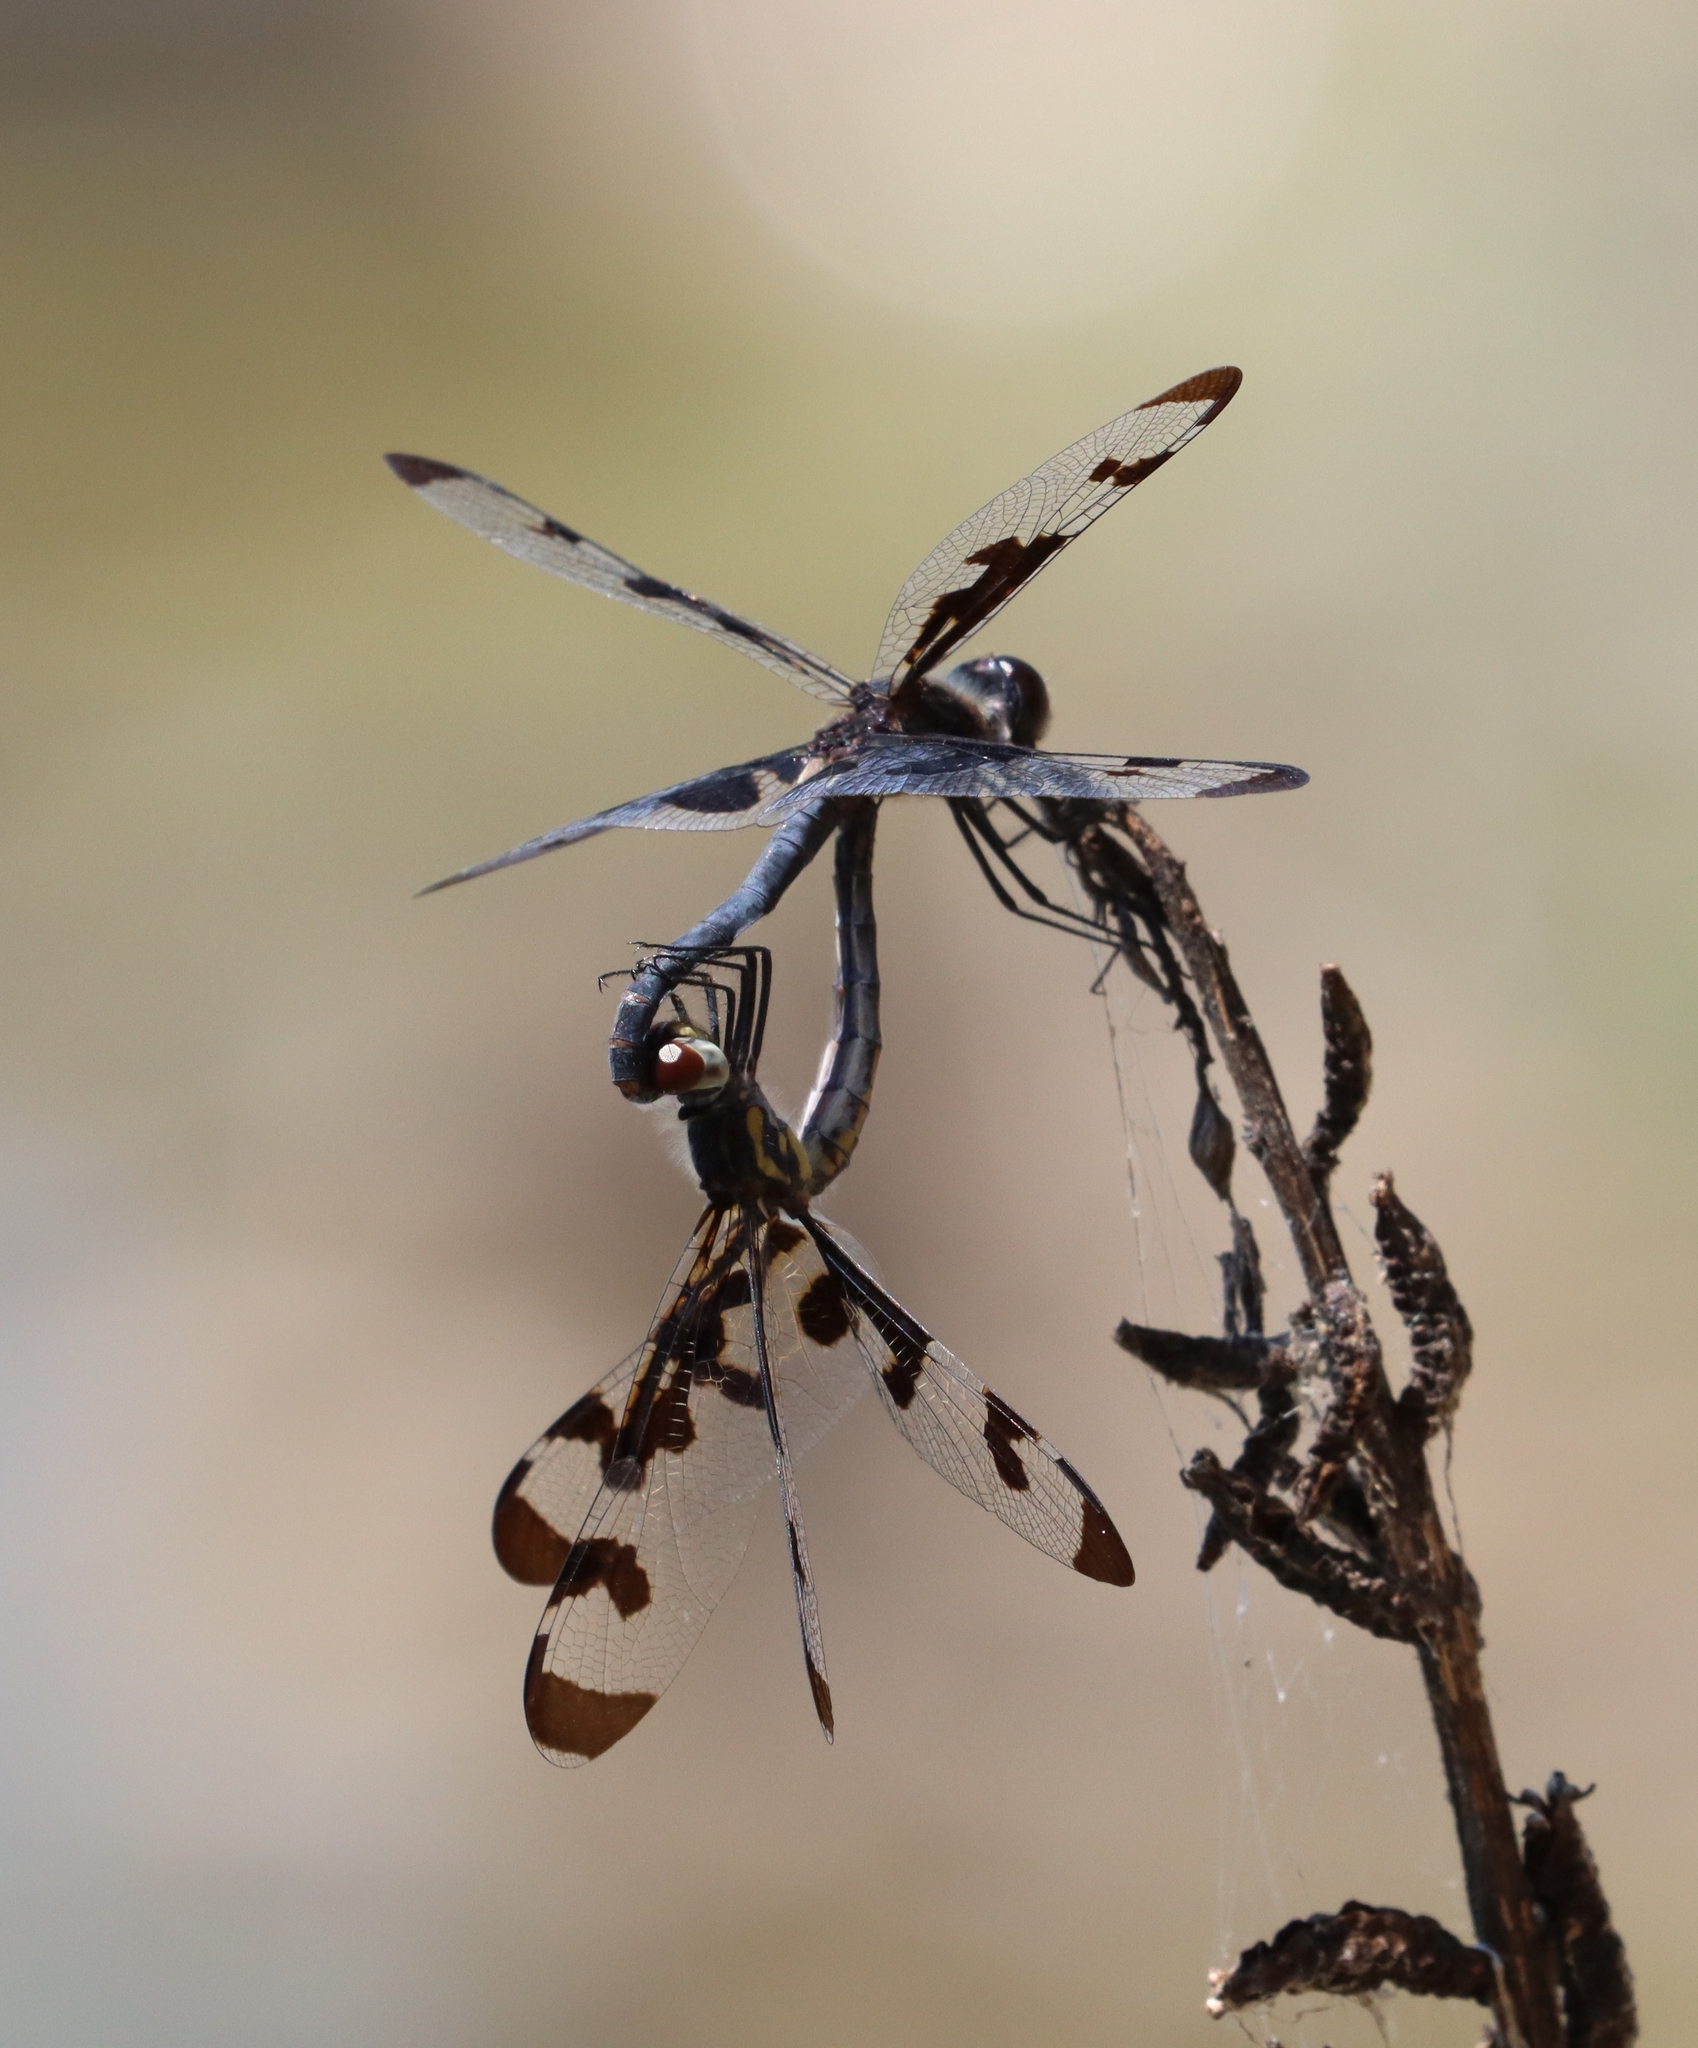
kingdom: Animalia
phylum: Arthropoda
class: Insecta
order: Odonata
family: Libellulidae
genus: Celithemis
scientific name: Celithemis fasciata
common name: Banded pennant
